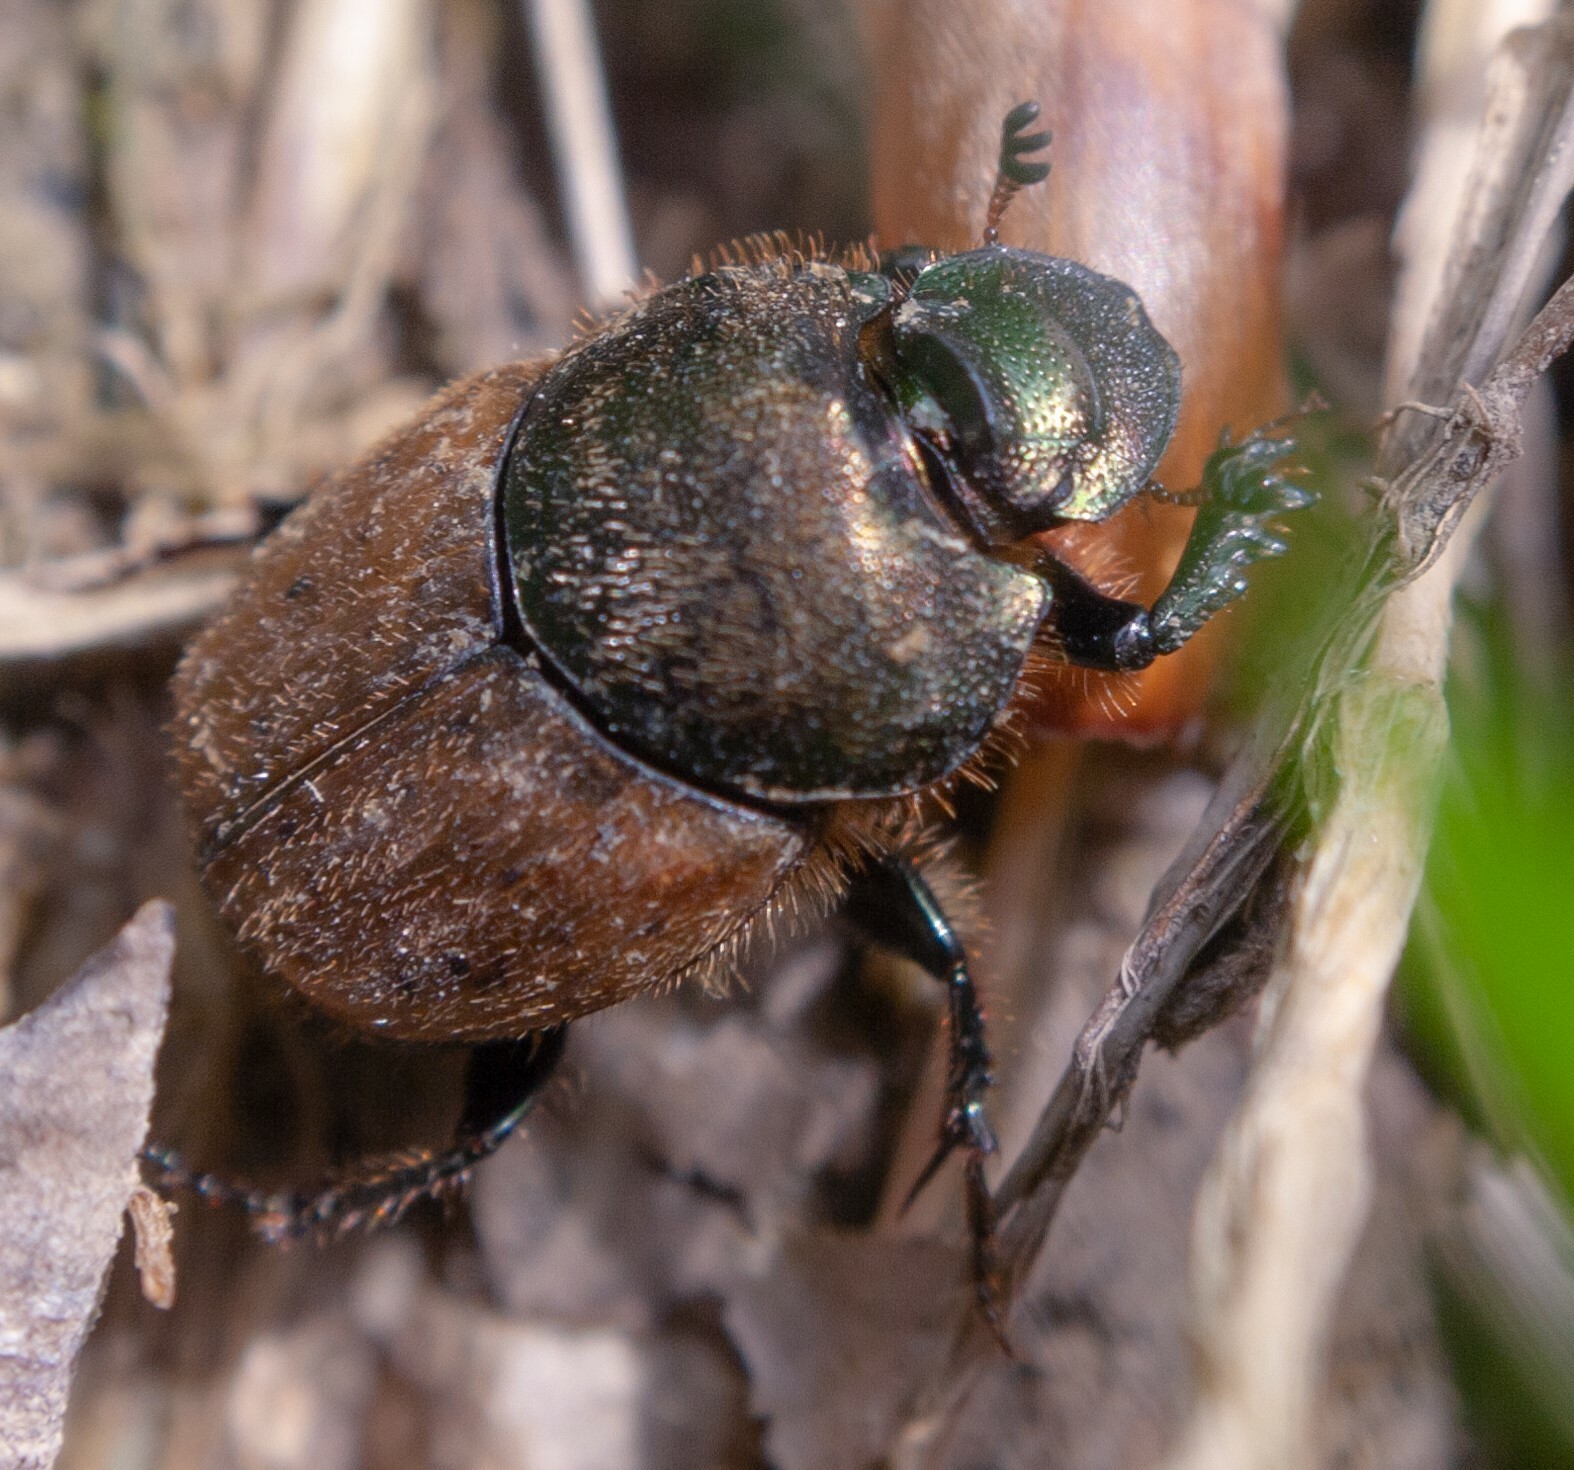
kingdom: Animalia
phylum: Arthropoda
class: Insecta
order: Coleoptera
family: Scarabaeidae
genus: Onthophagus
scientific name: Onthophagus coenobita
